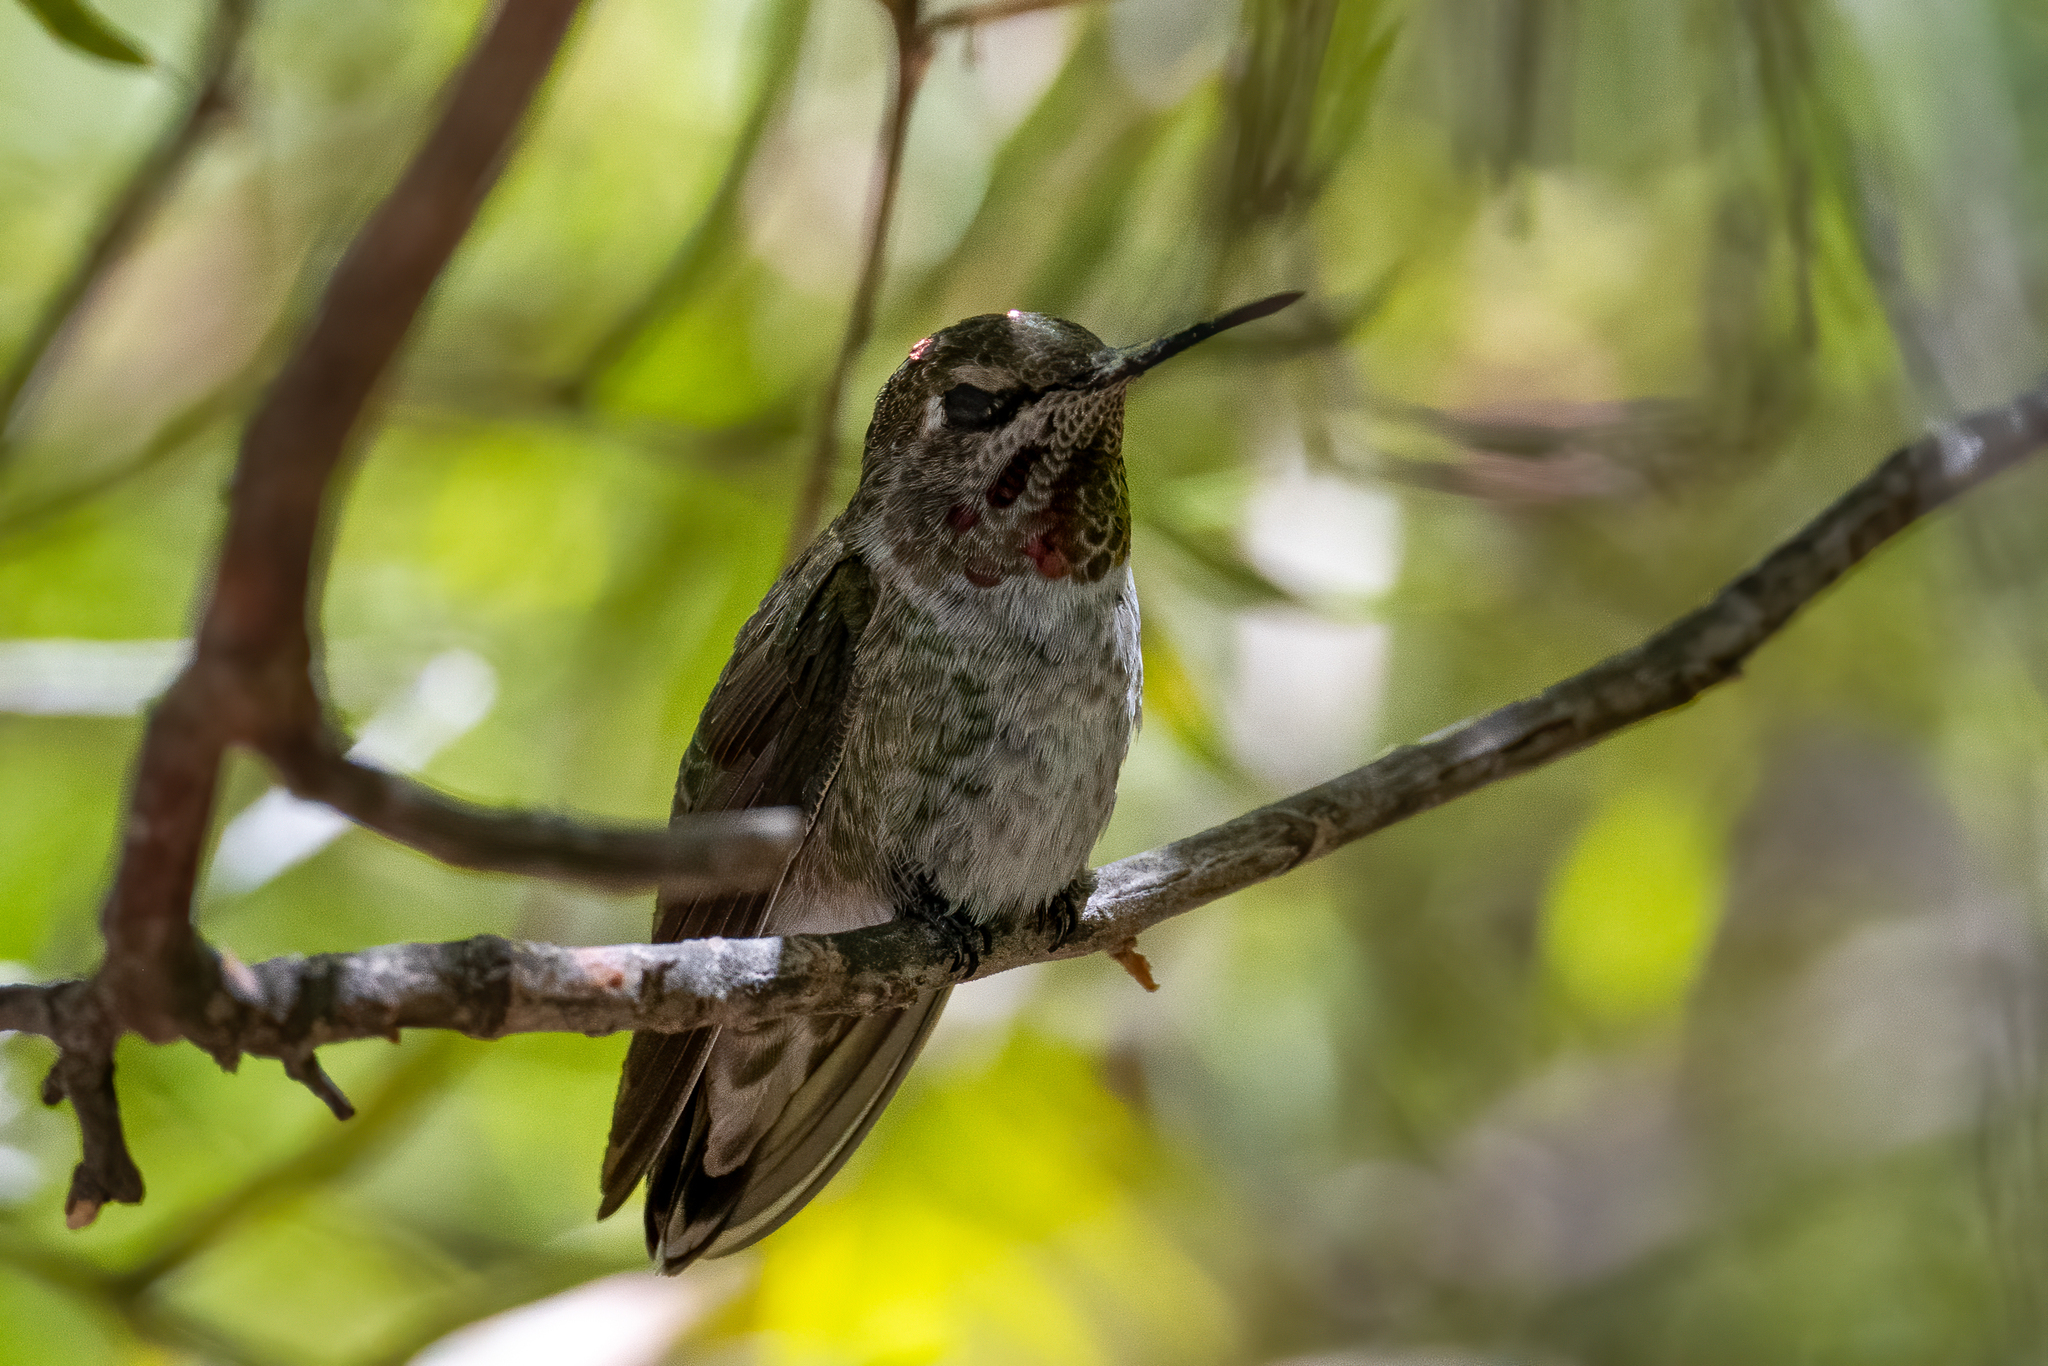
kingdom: Animalia
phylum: Chordata
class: Aves
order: Apodiformes
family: Trochilidae
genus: Calypte
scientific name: Calypte anna
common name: Anna's hummingbird
